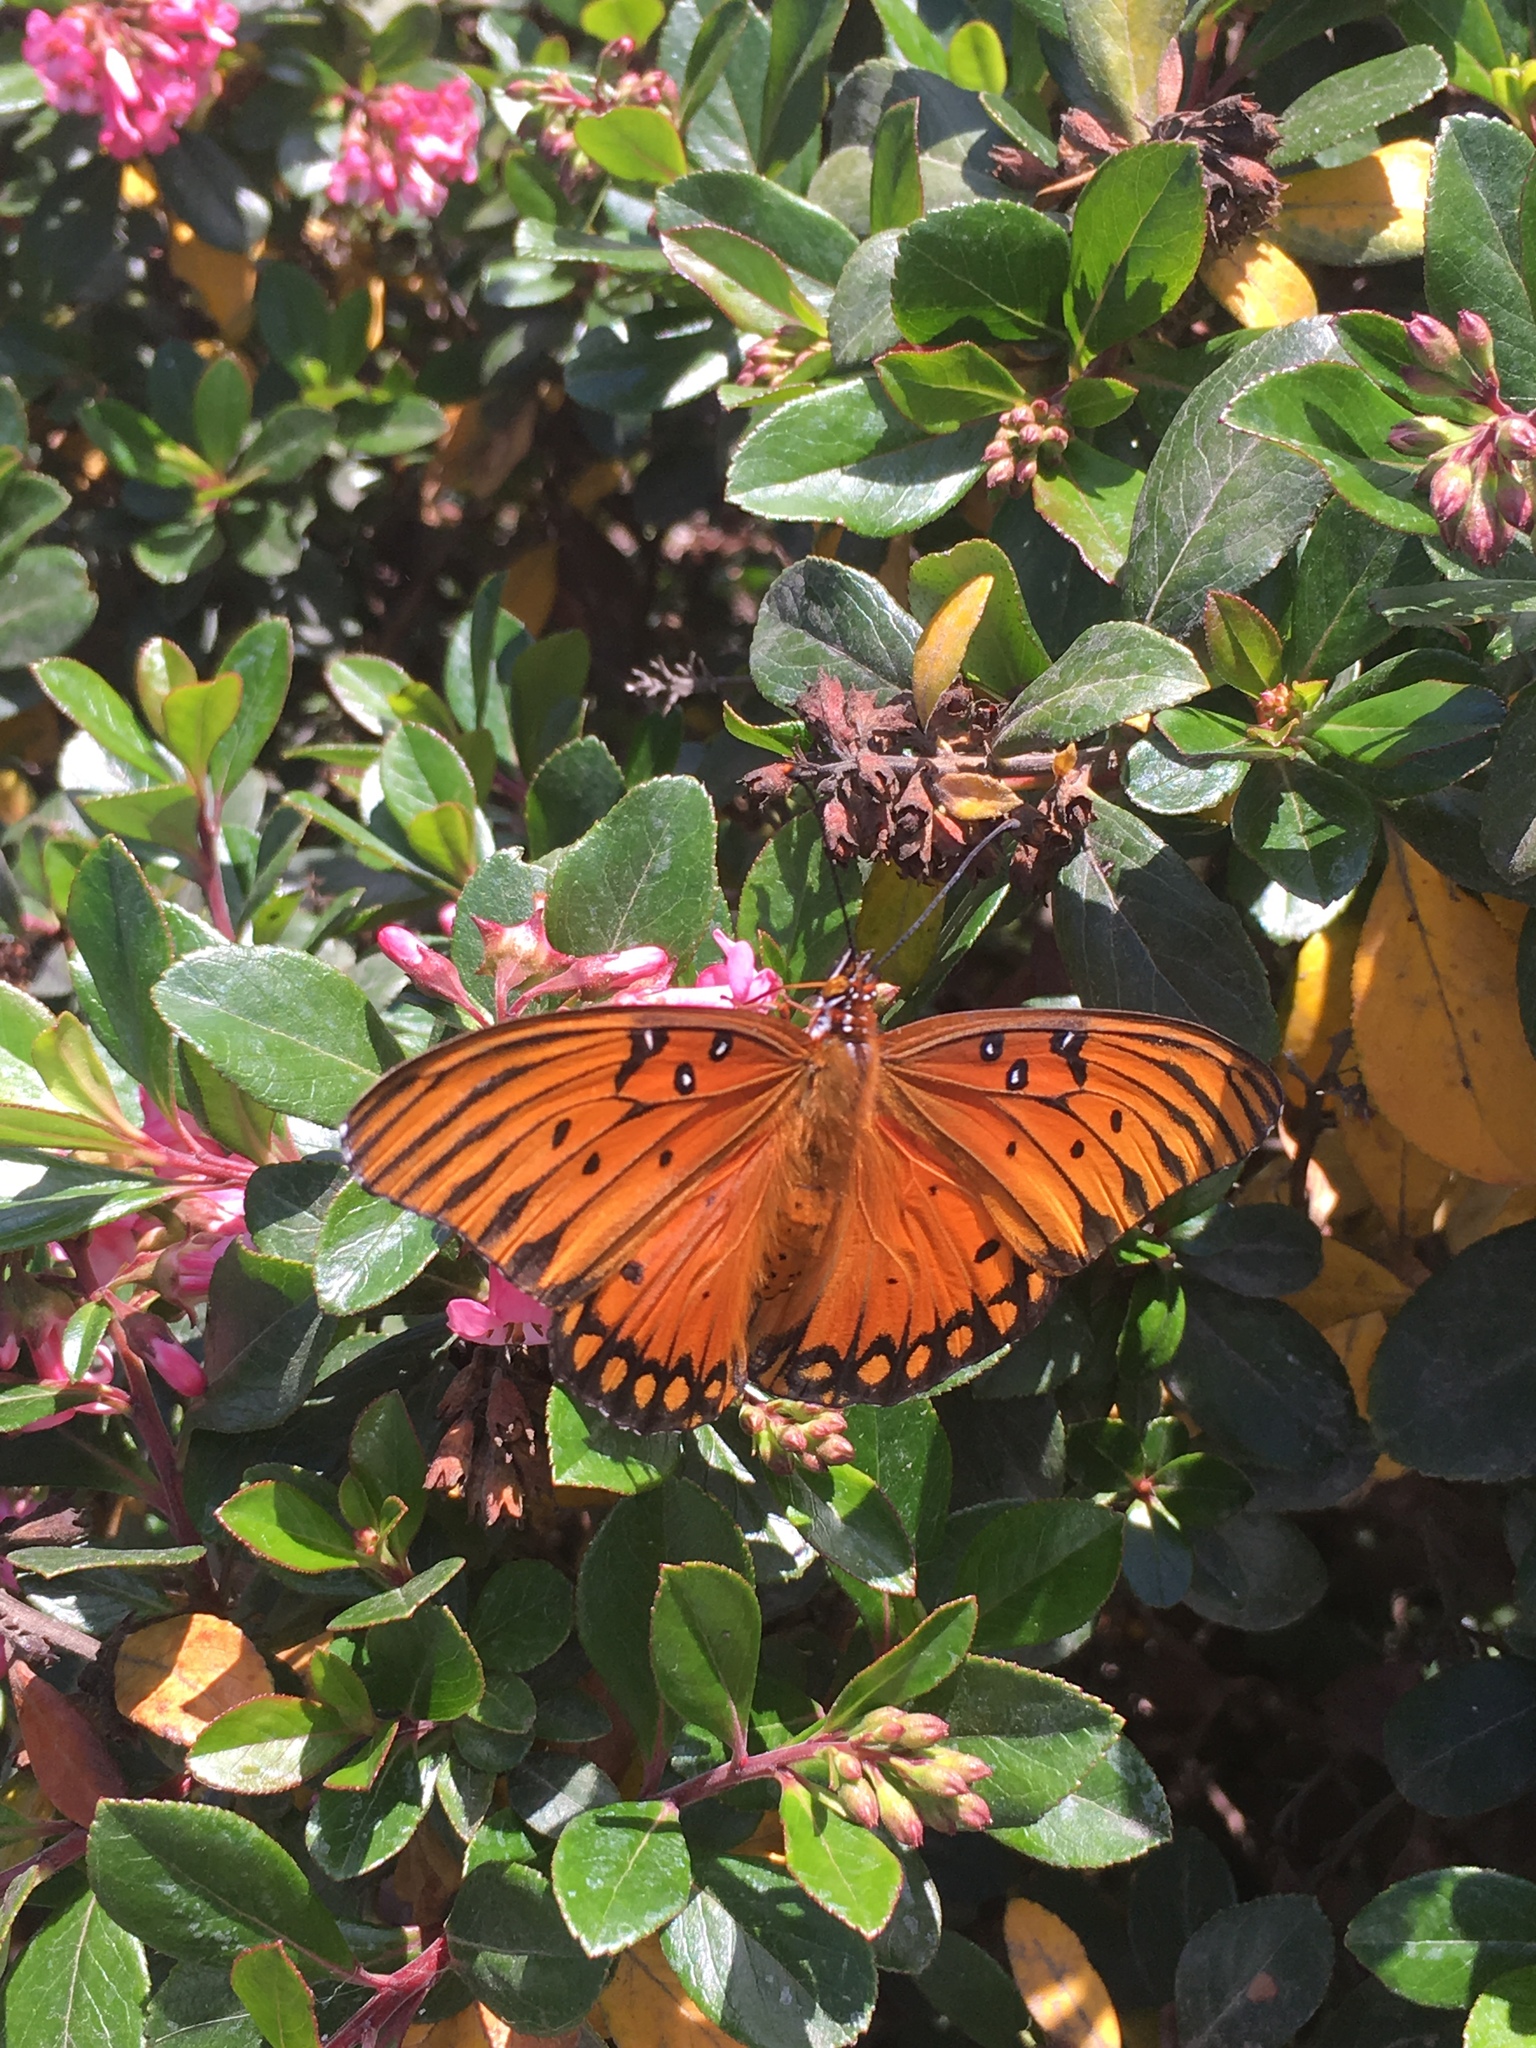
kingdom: Animalia
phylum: Arthropoda
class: Insecta
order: Lepidoptera
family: Nymphalidae
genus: Dione
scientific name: Dione vanillae
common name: Gulf fritillary
